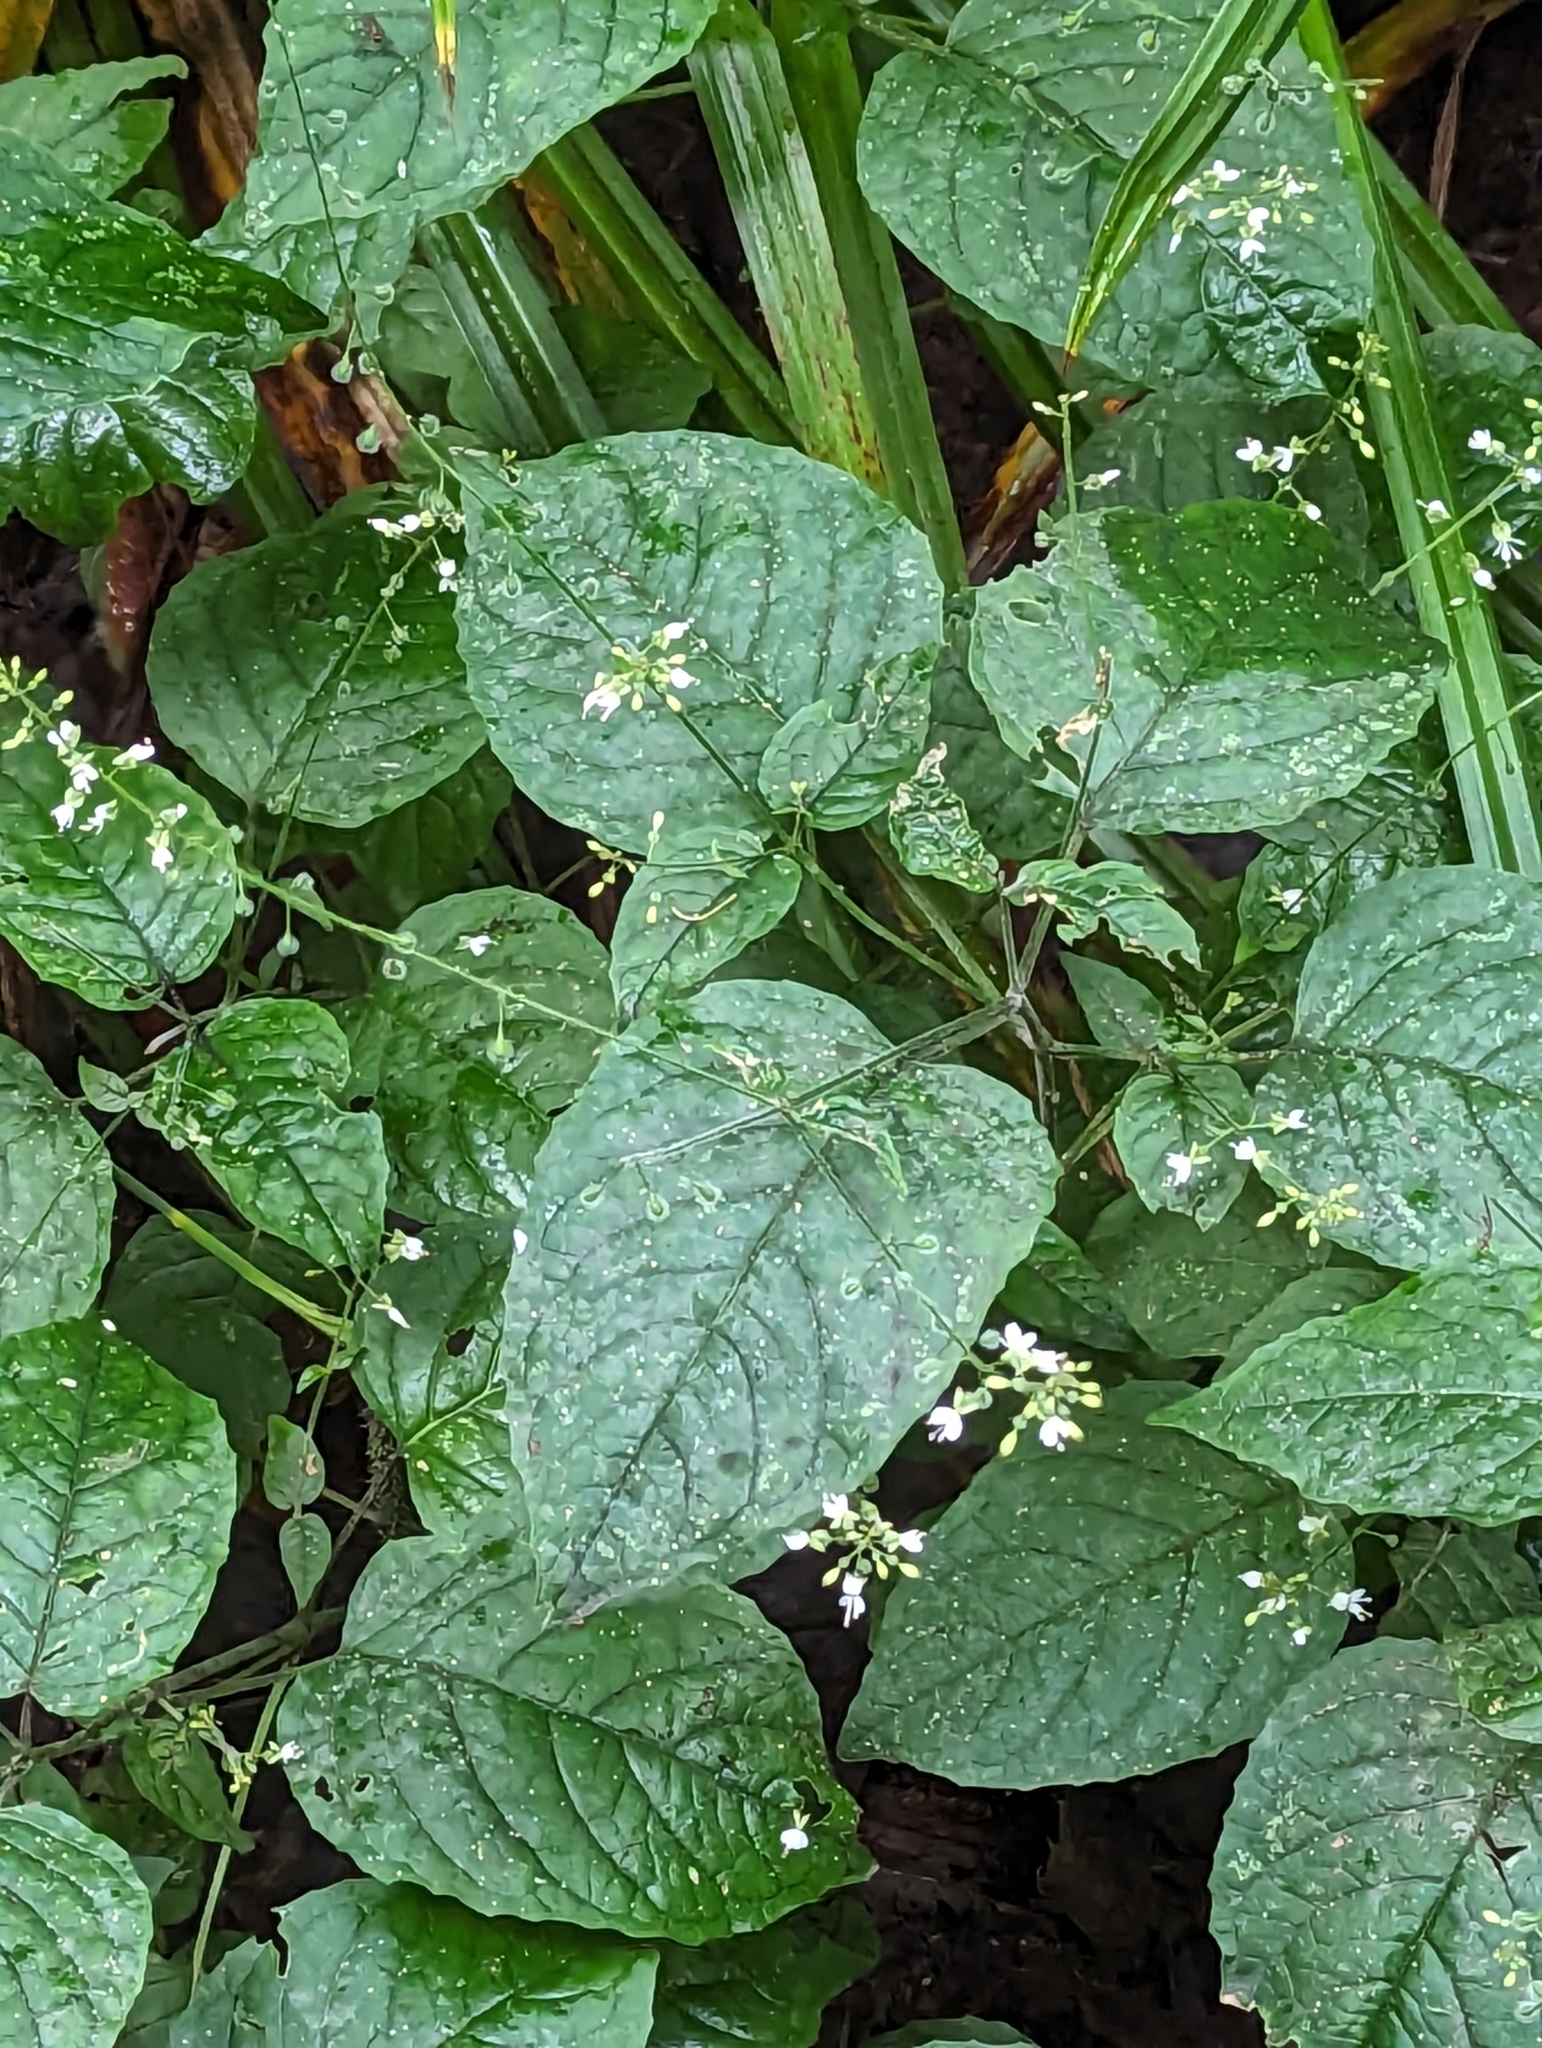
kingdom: Plantae
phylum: Tracheophyta
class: Magnoliopsida
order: Myrtales
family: Onagraceae
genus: Circaea
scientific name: Circaea lutetiana
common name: Enchanter's-nightshade
